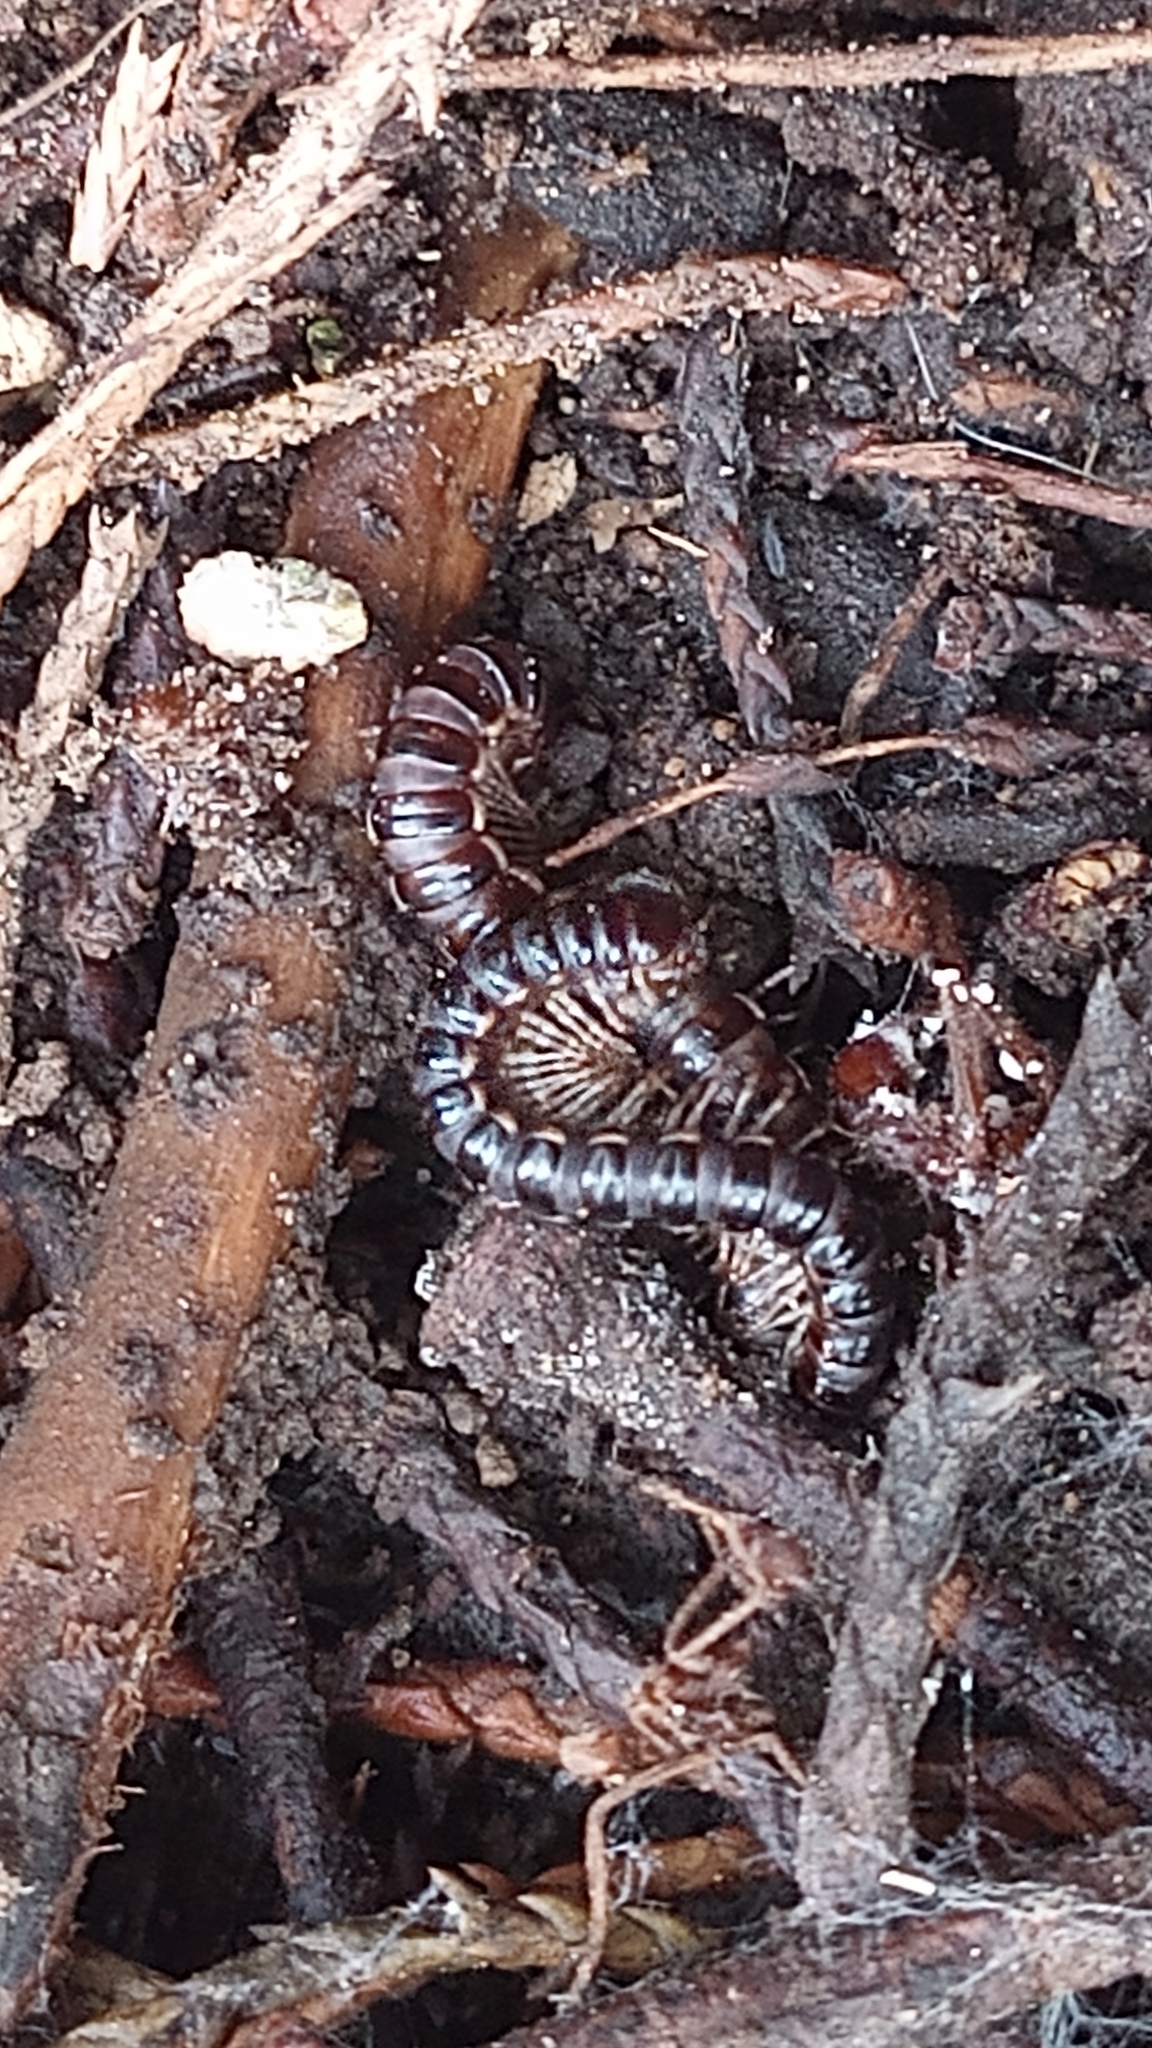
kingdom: Animalia
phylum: Arthropoda
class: Diplopoda
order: Polydesmida
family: Paradoxosomatidae
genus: Oxidus
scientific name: Oxidus gracilis
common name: Greenhouse millipede
